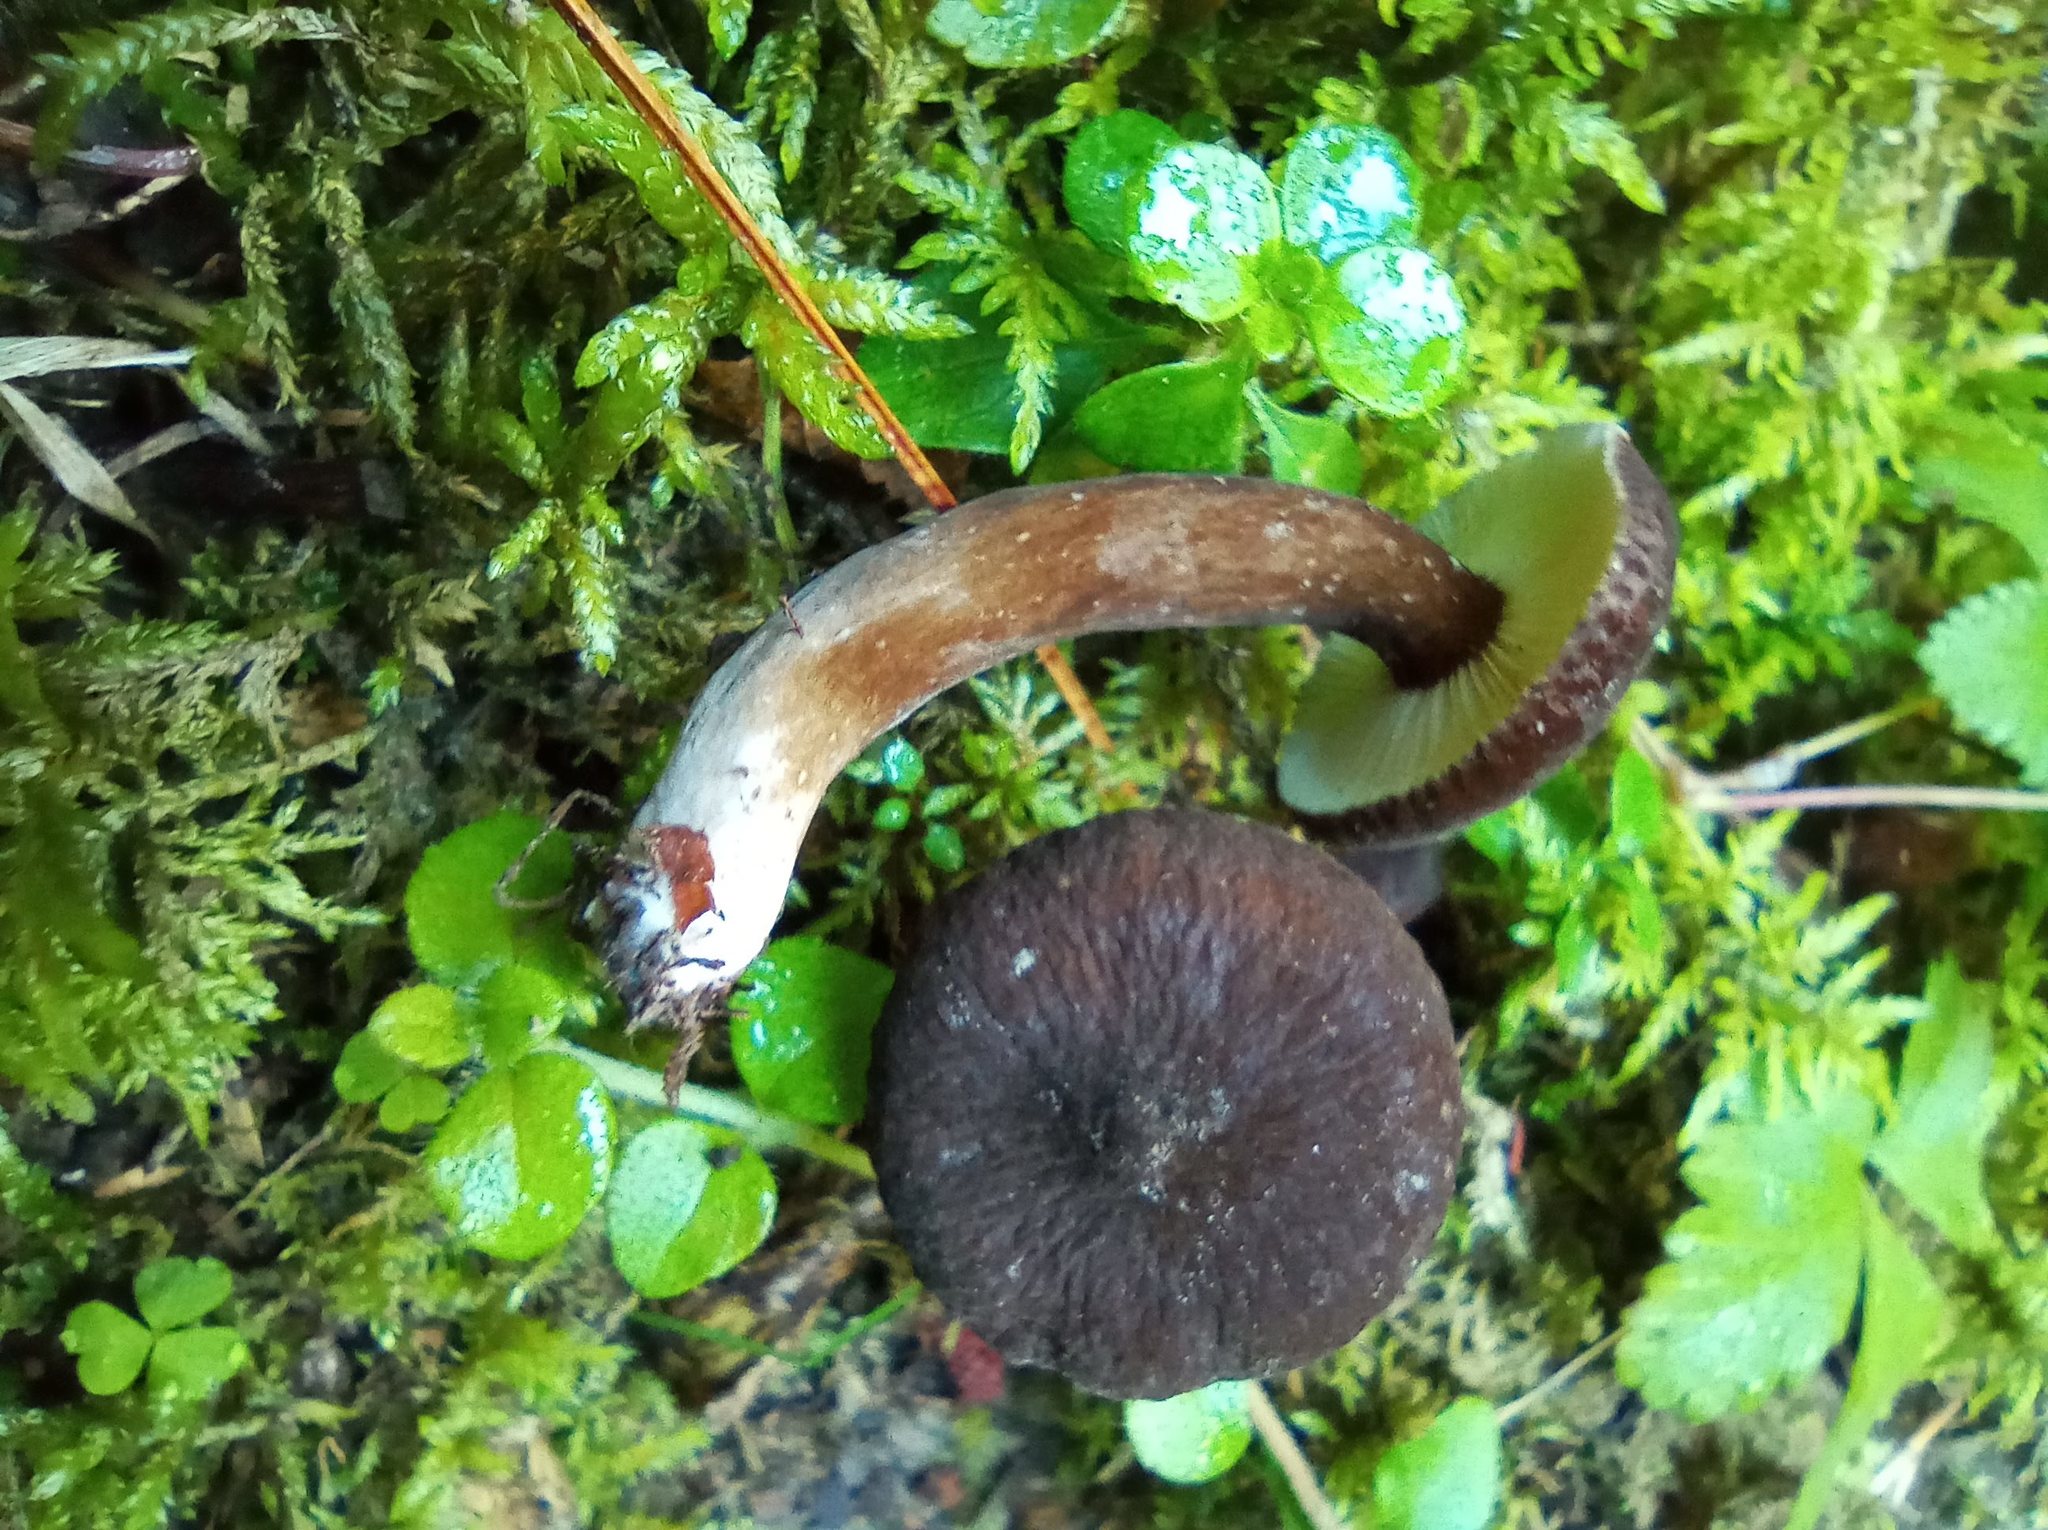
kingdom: Fungi
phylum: Basidiomycota
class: Agaricomycetes
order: Russulales
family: Russulaceae
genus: Lactarius
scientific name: Lactarius lignyotus
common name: Velvet milkcap
